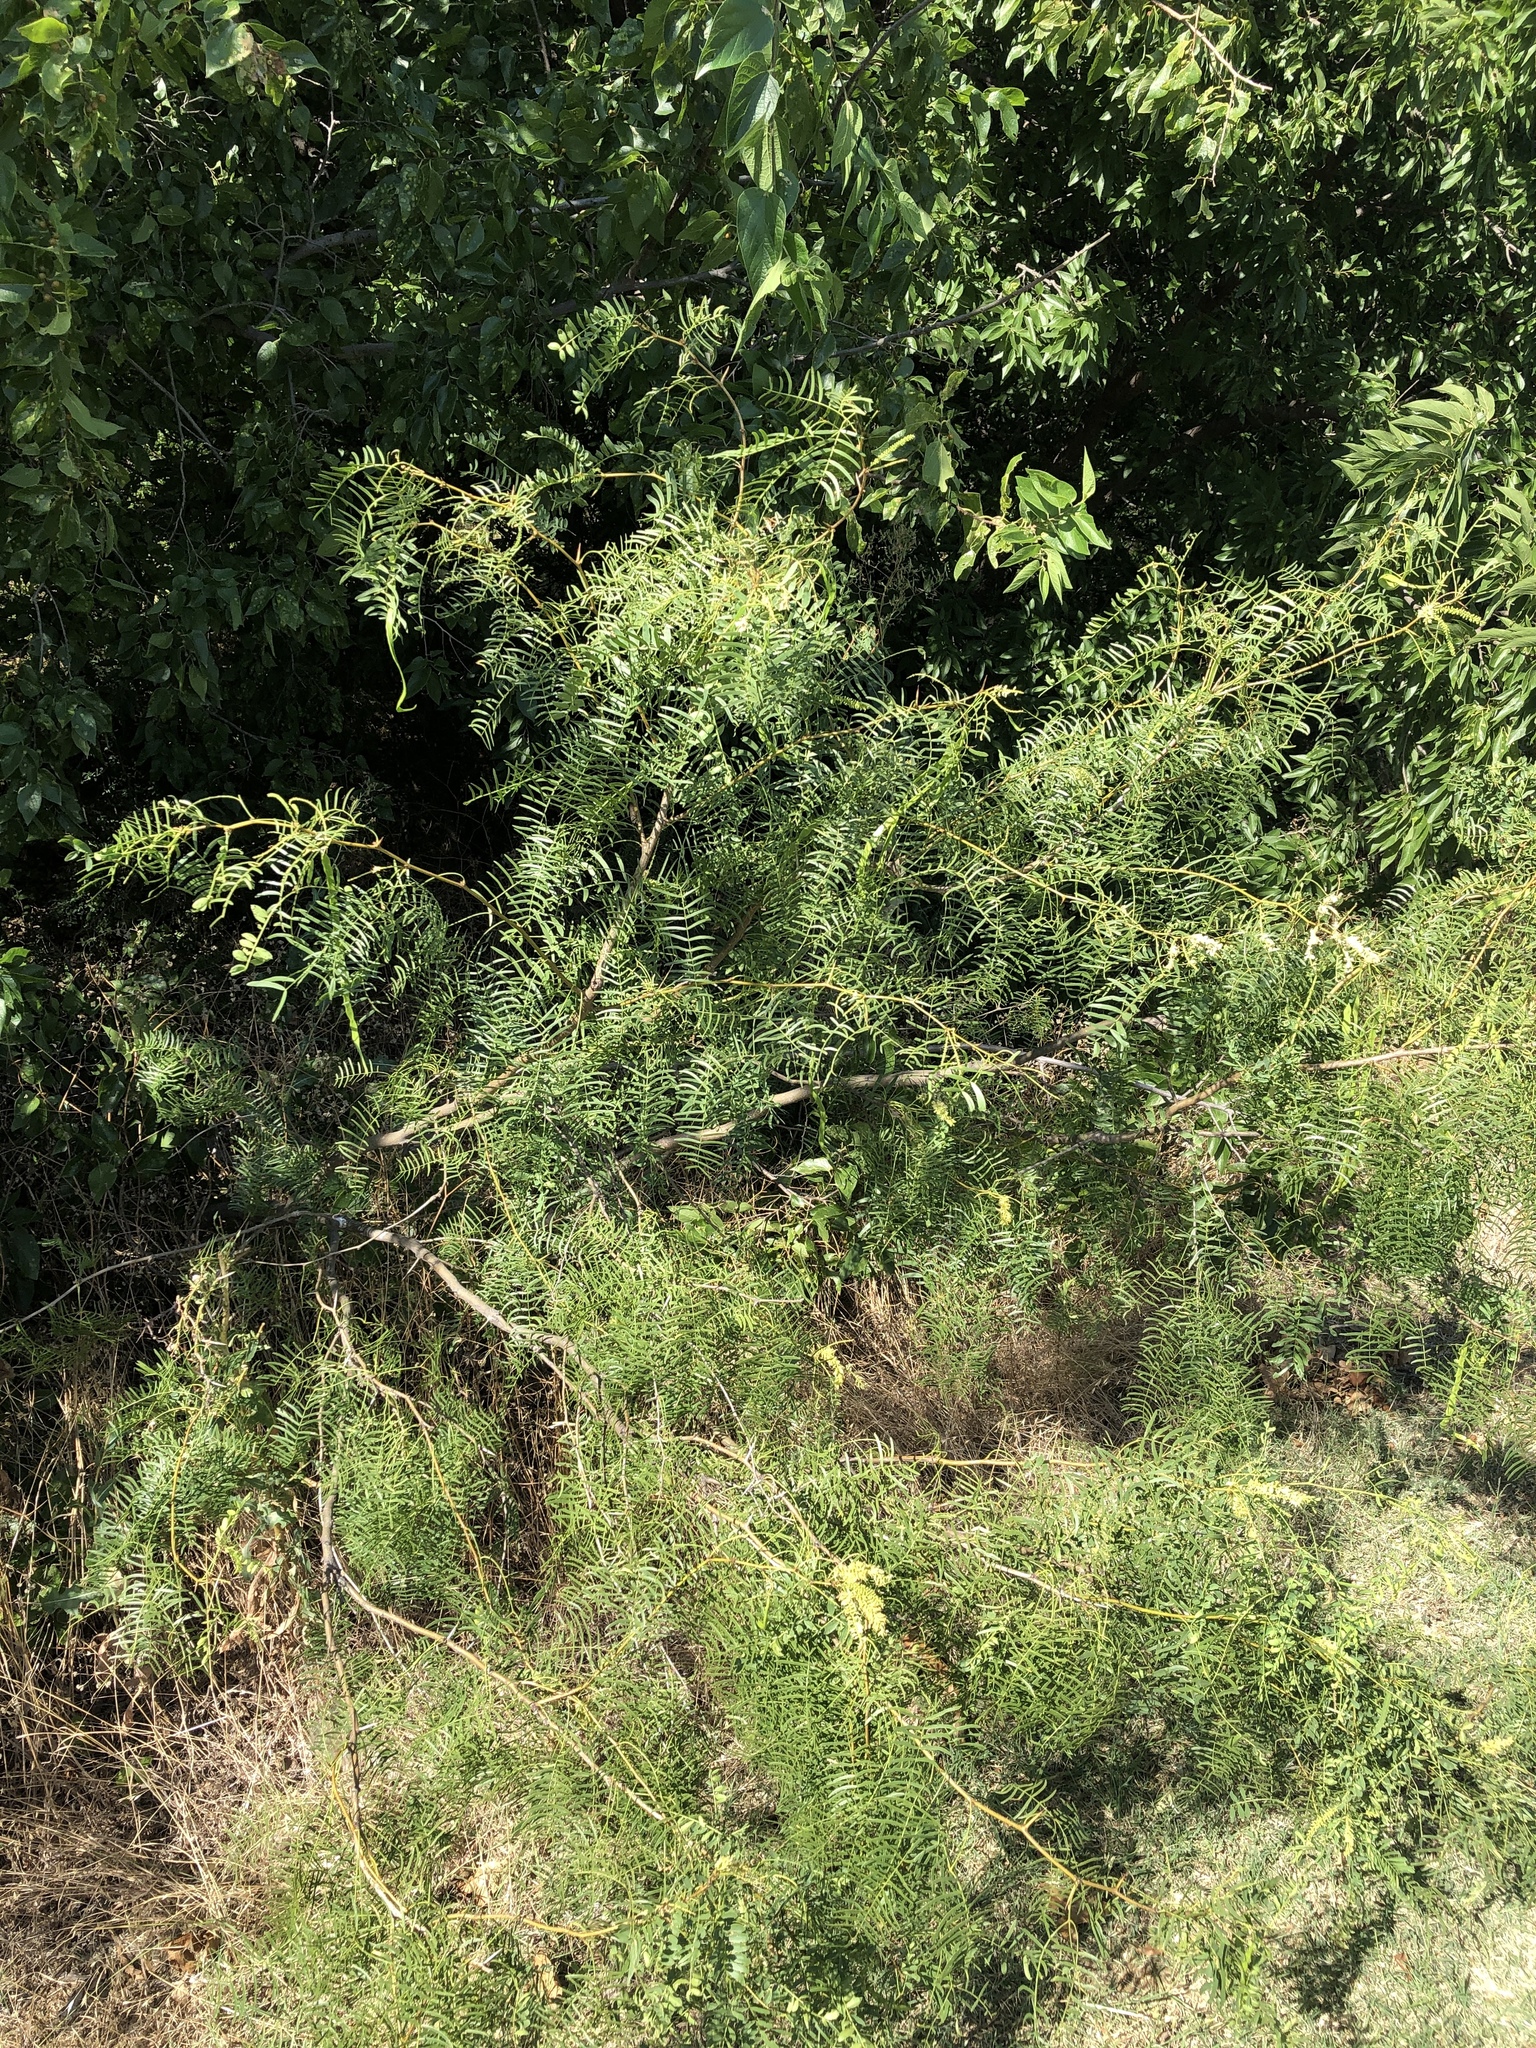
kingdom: Plantae
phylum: Tracheophyta
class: Magnoliopsida
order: Fabales
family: Fabaceae
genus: Prosopis
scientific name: Prosopis glandulosa
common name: Honey mesquite
